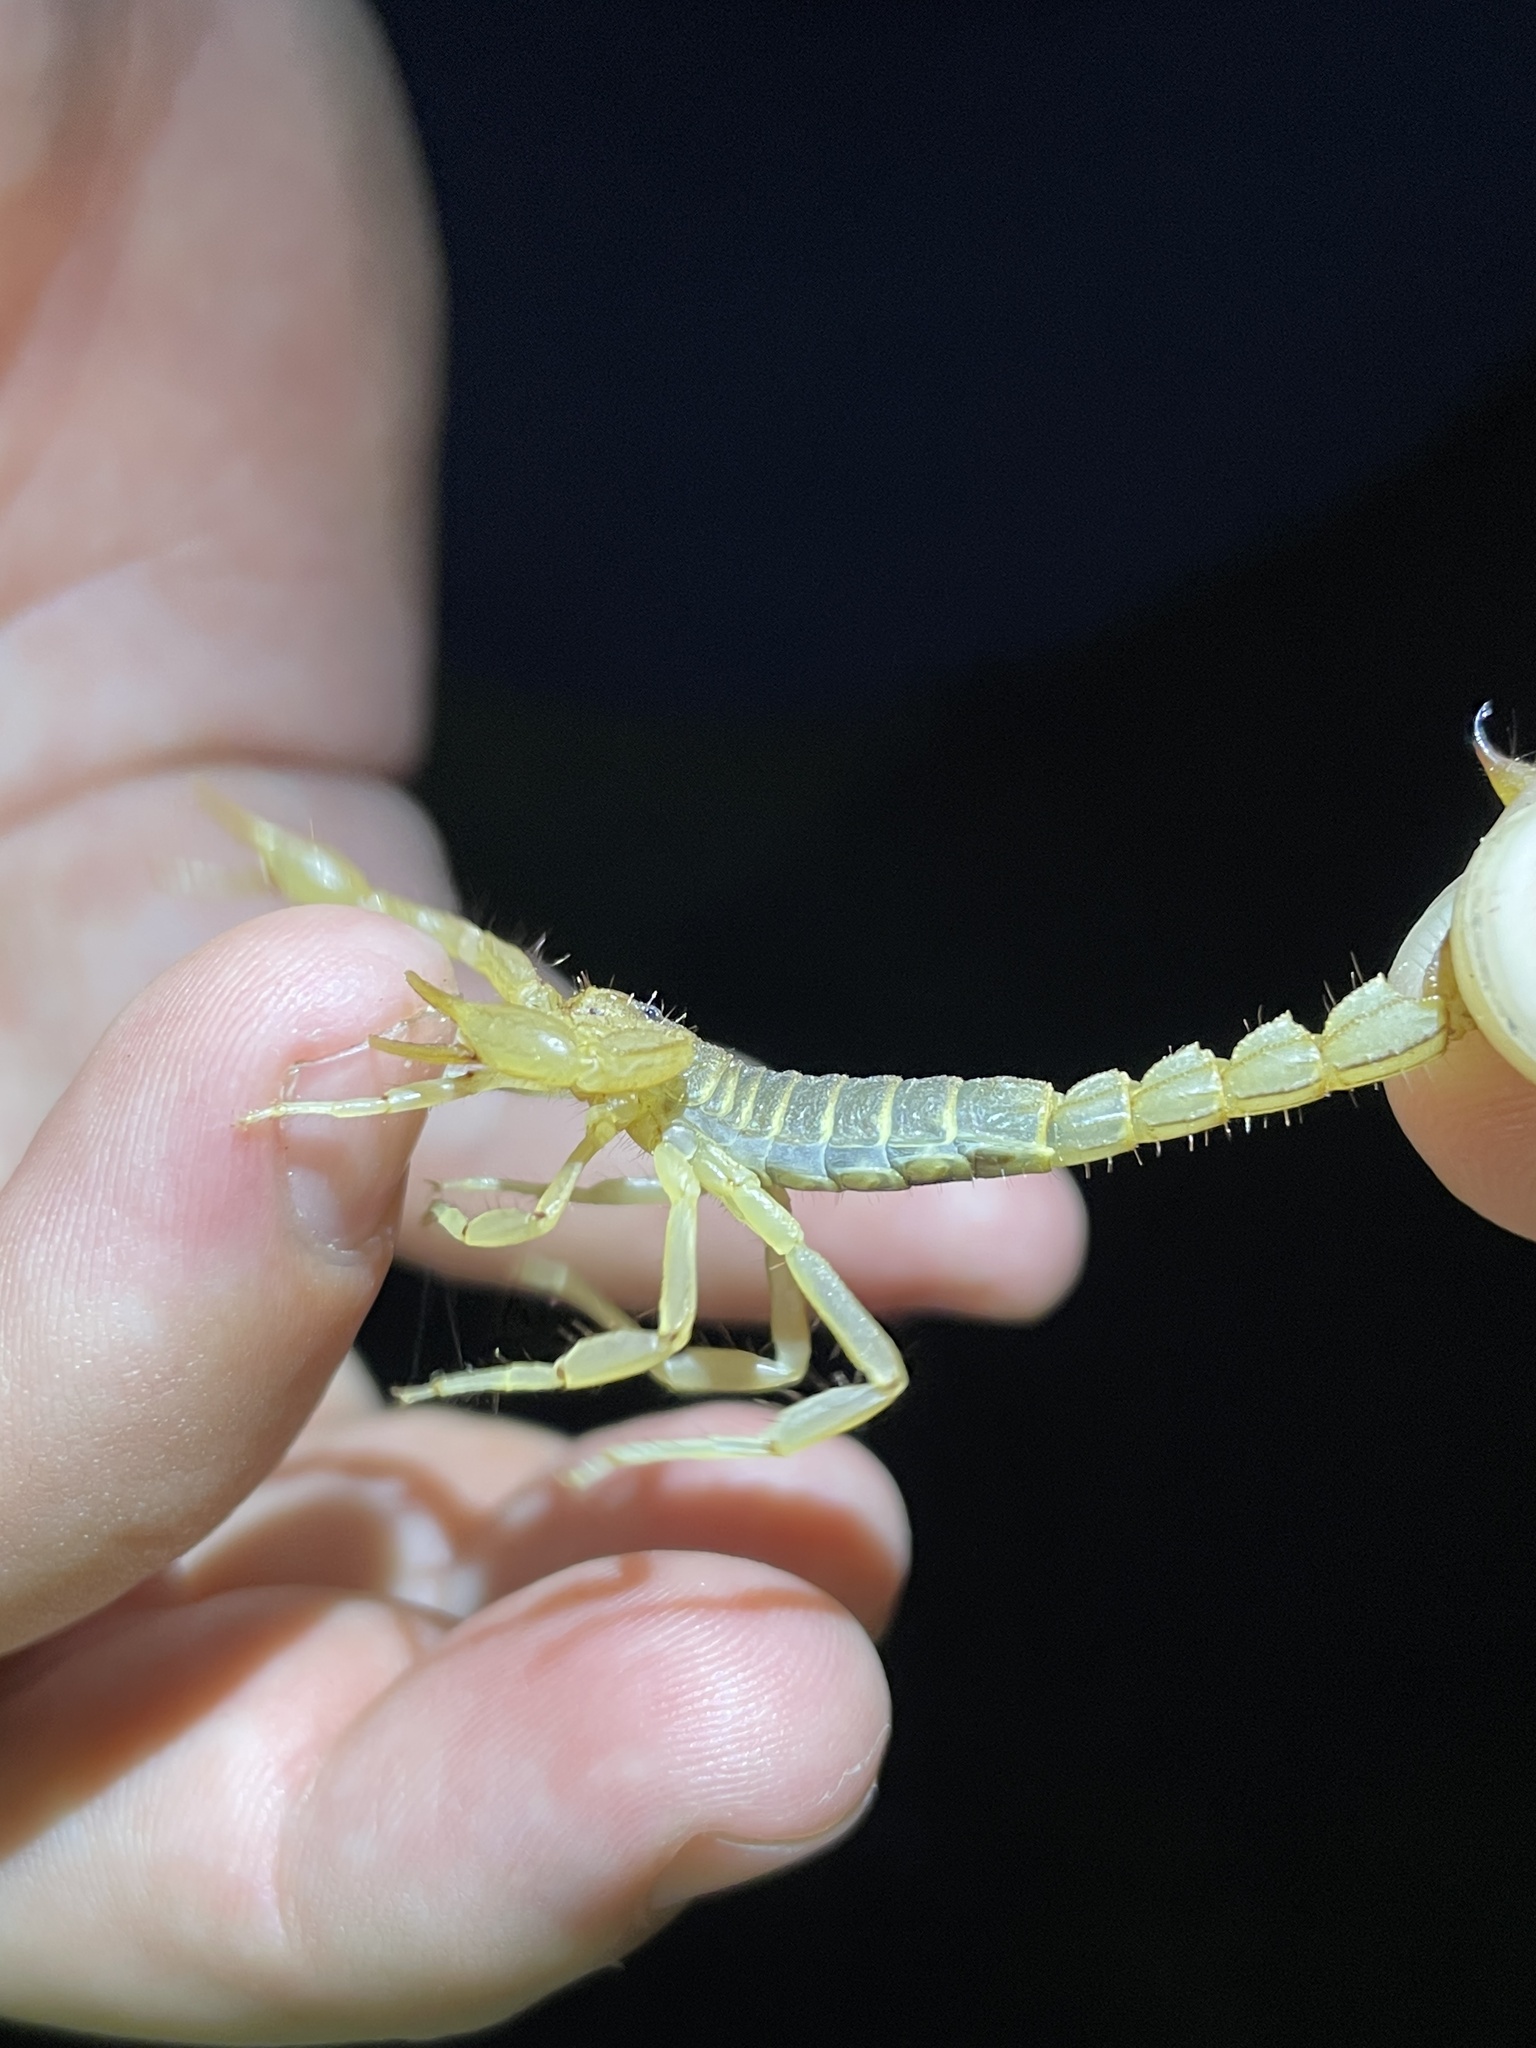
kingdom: Animalia
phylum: Arthropoda
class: Arachnida
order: Scorpiones
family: Vaejovidae
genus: Paravaejovis
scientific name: Paravaejovis spinigerus
